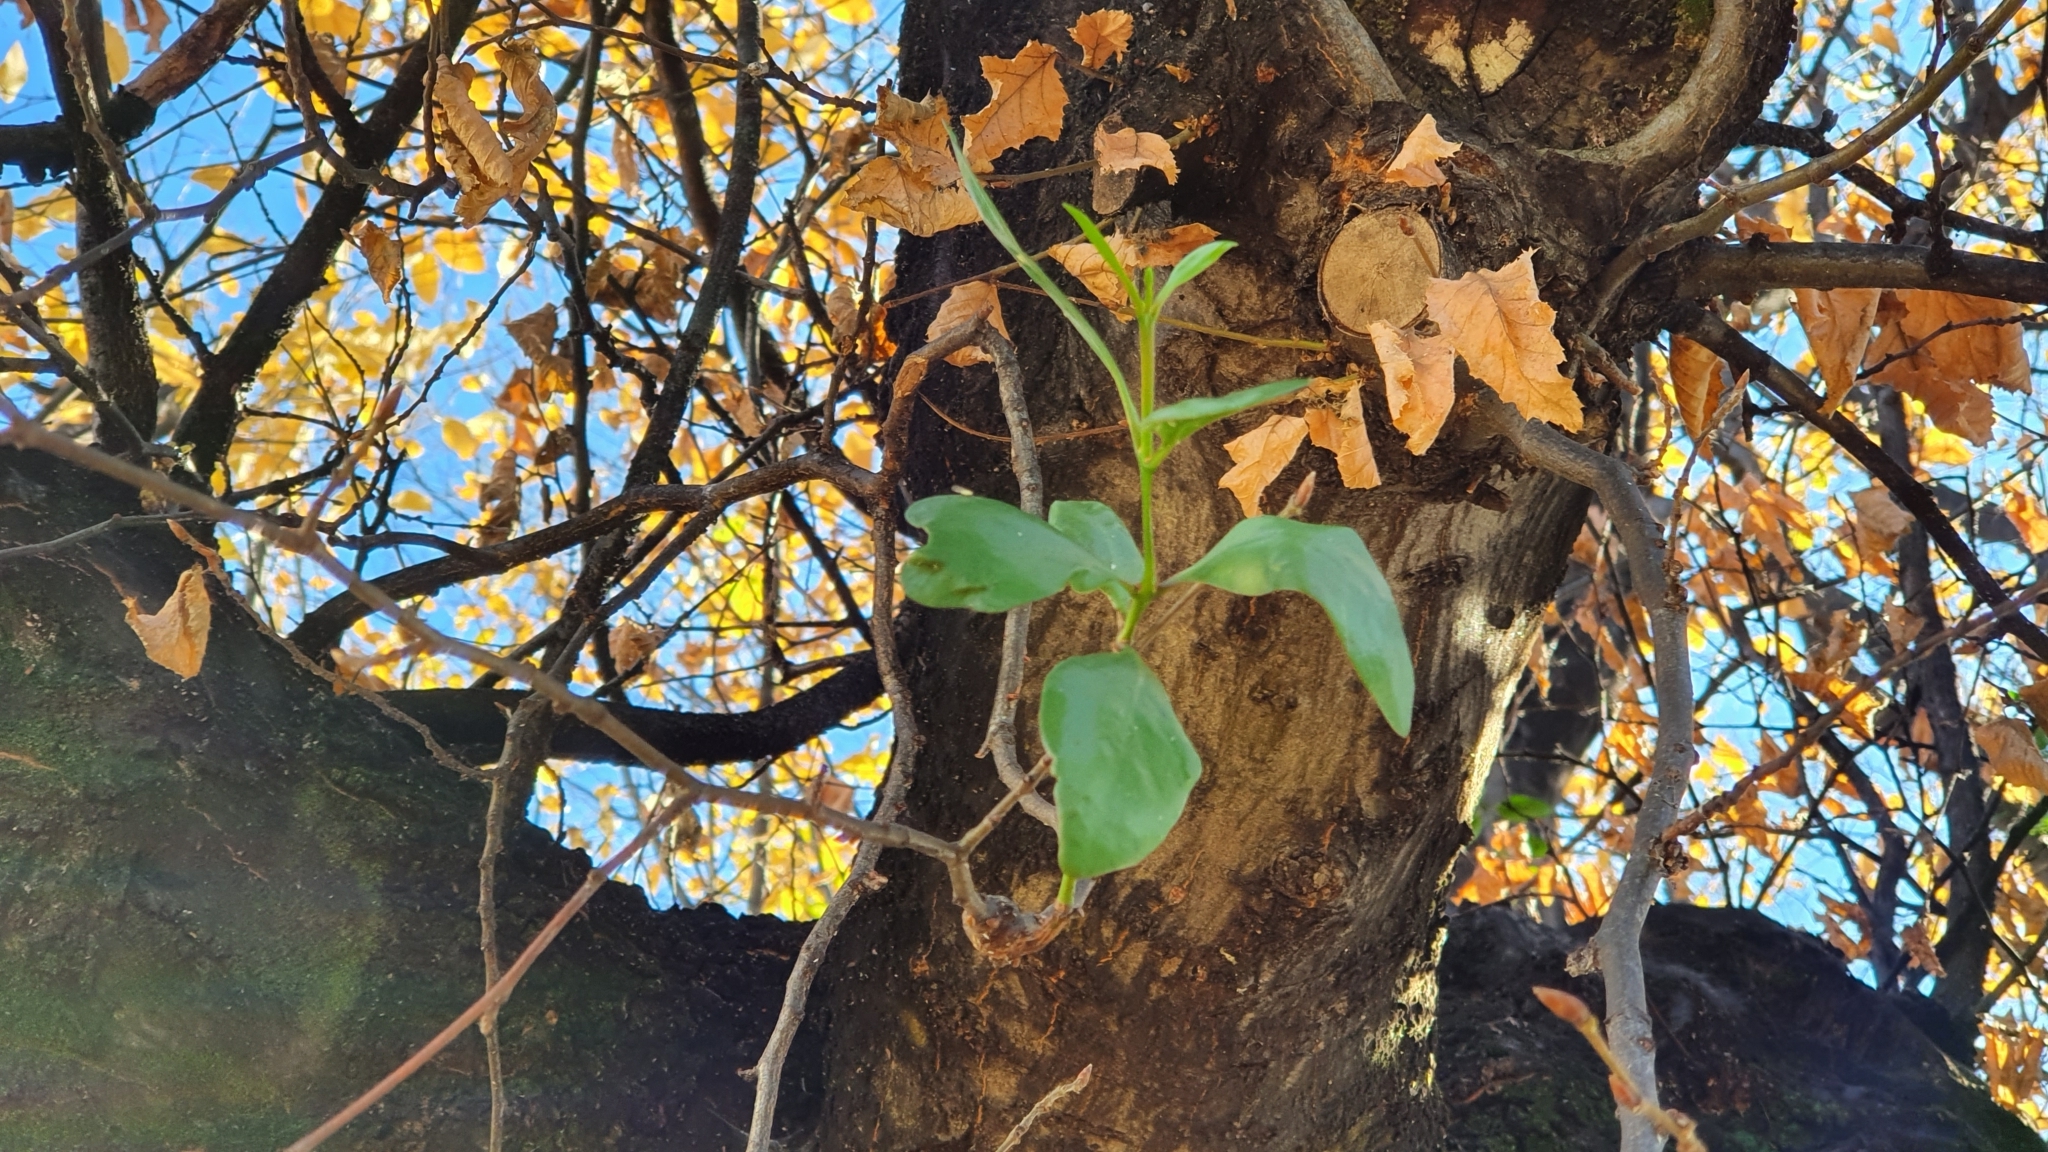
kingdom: Plantae
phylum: Tracheophyta
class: Magnoliopsida
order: Santalales
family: Loranthaceae
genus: Ileostylus
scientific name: Ileostylus micranthus
